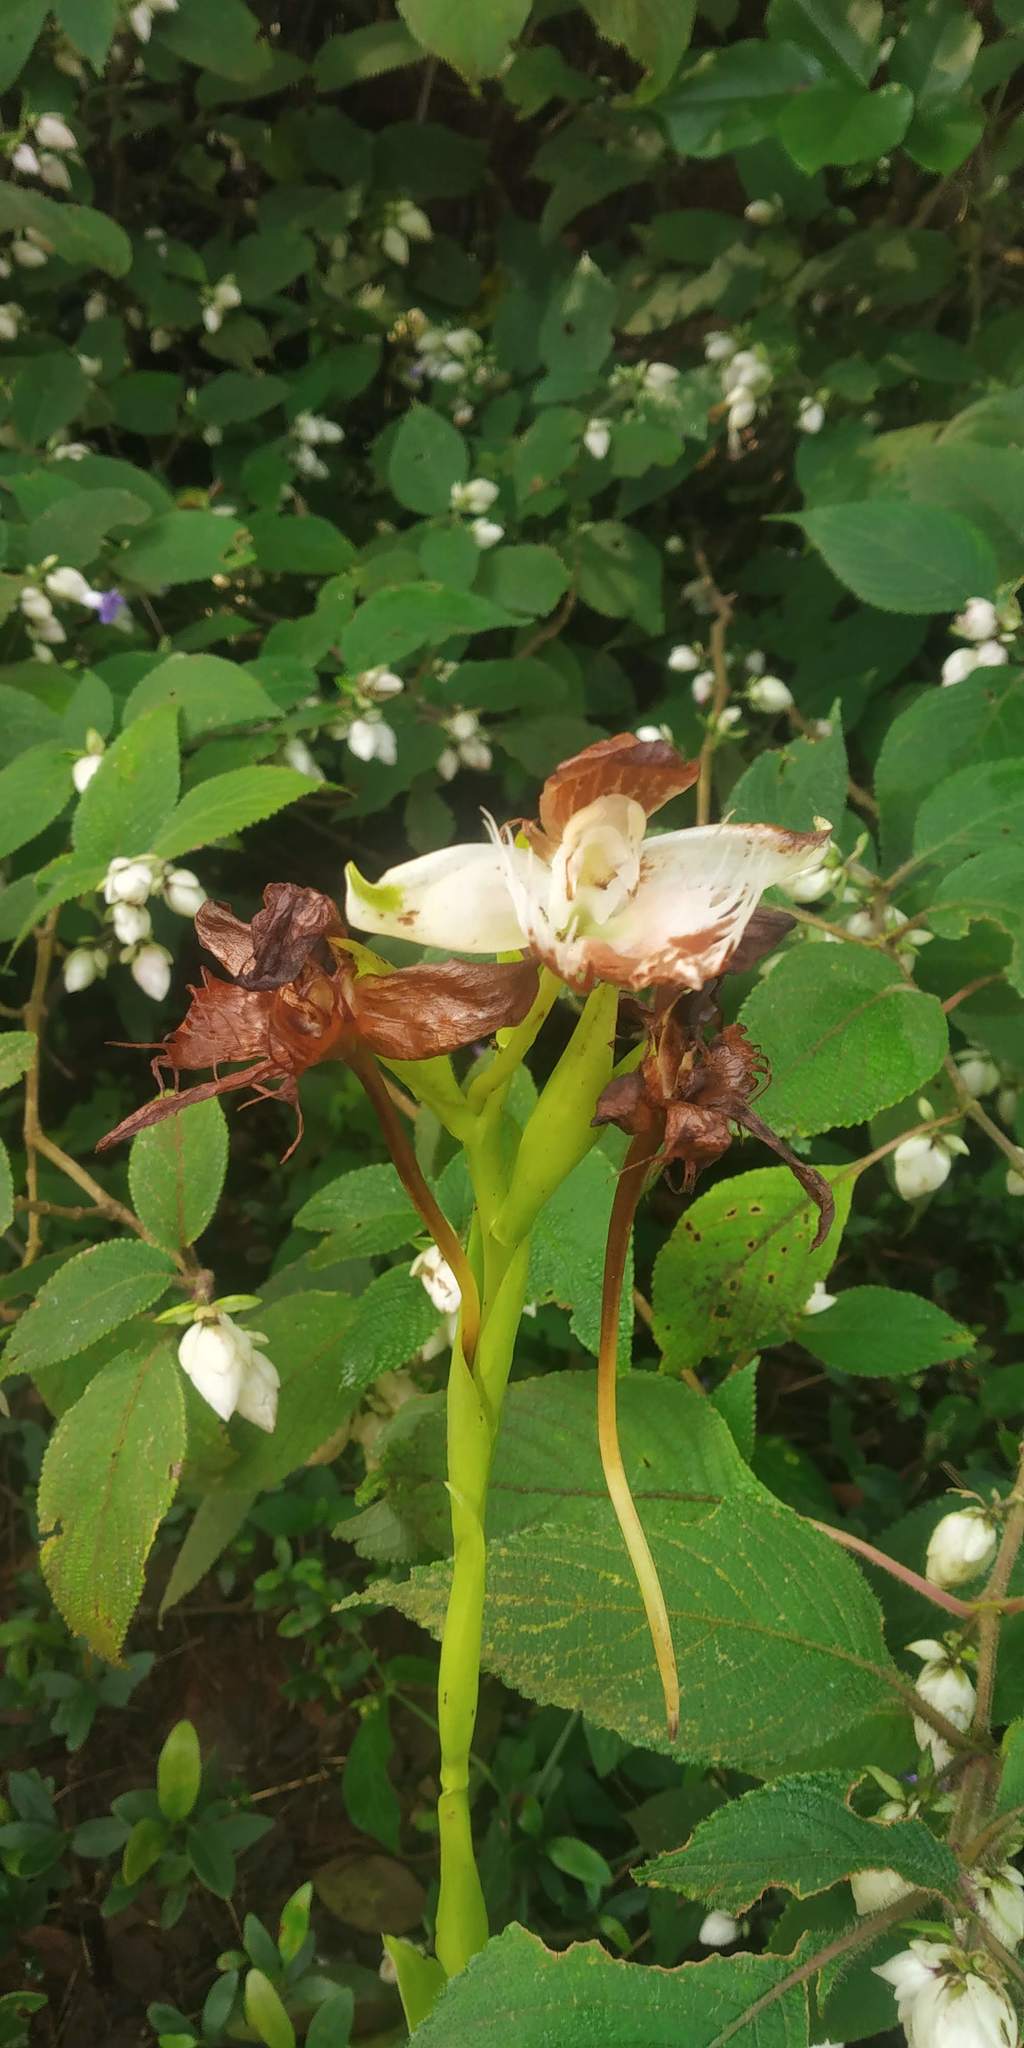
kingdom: Plantae
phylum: Tracheophyta
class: Liliopsida
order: Asparagales
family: Orchidaceae
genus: Pecteilis
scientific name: Pecteilis gigantea
